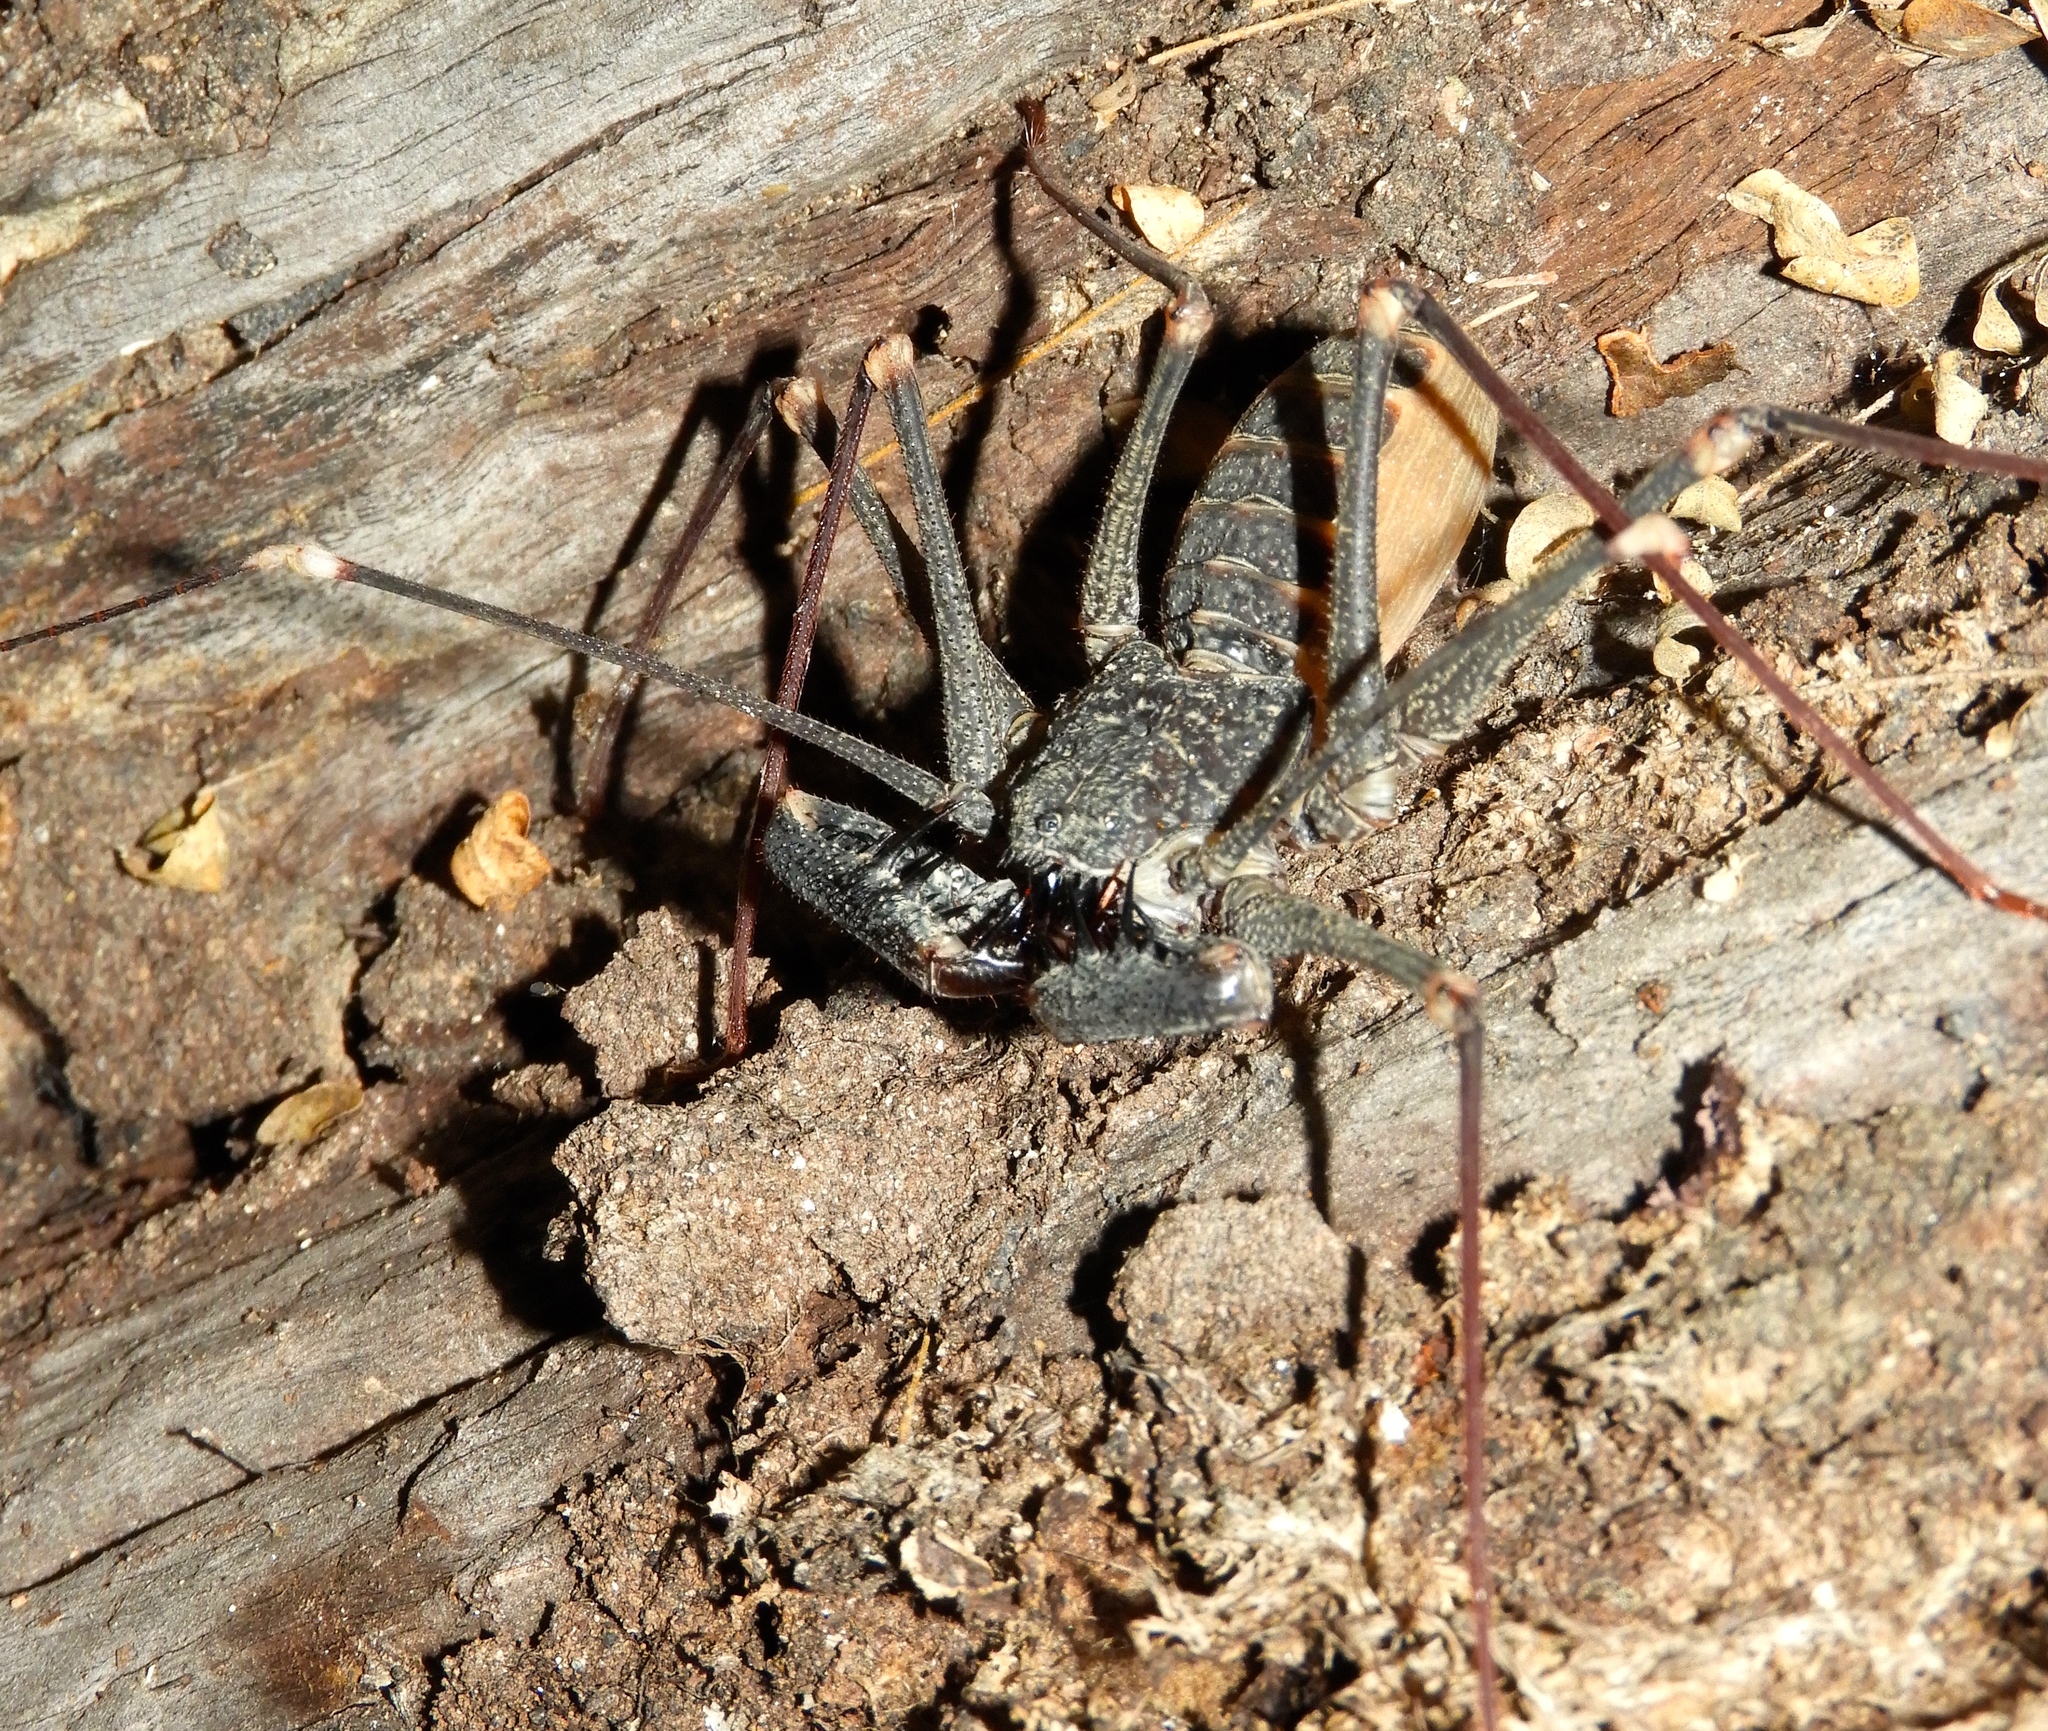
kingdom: Animalia
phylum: Arthropoda
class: Arachnida
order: Amblypygi
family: Phrynidae
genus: Acanthophrynus
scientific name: Acanthophrynus coronatus
